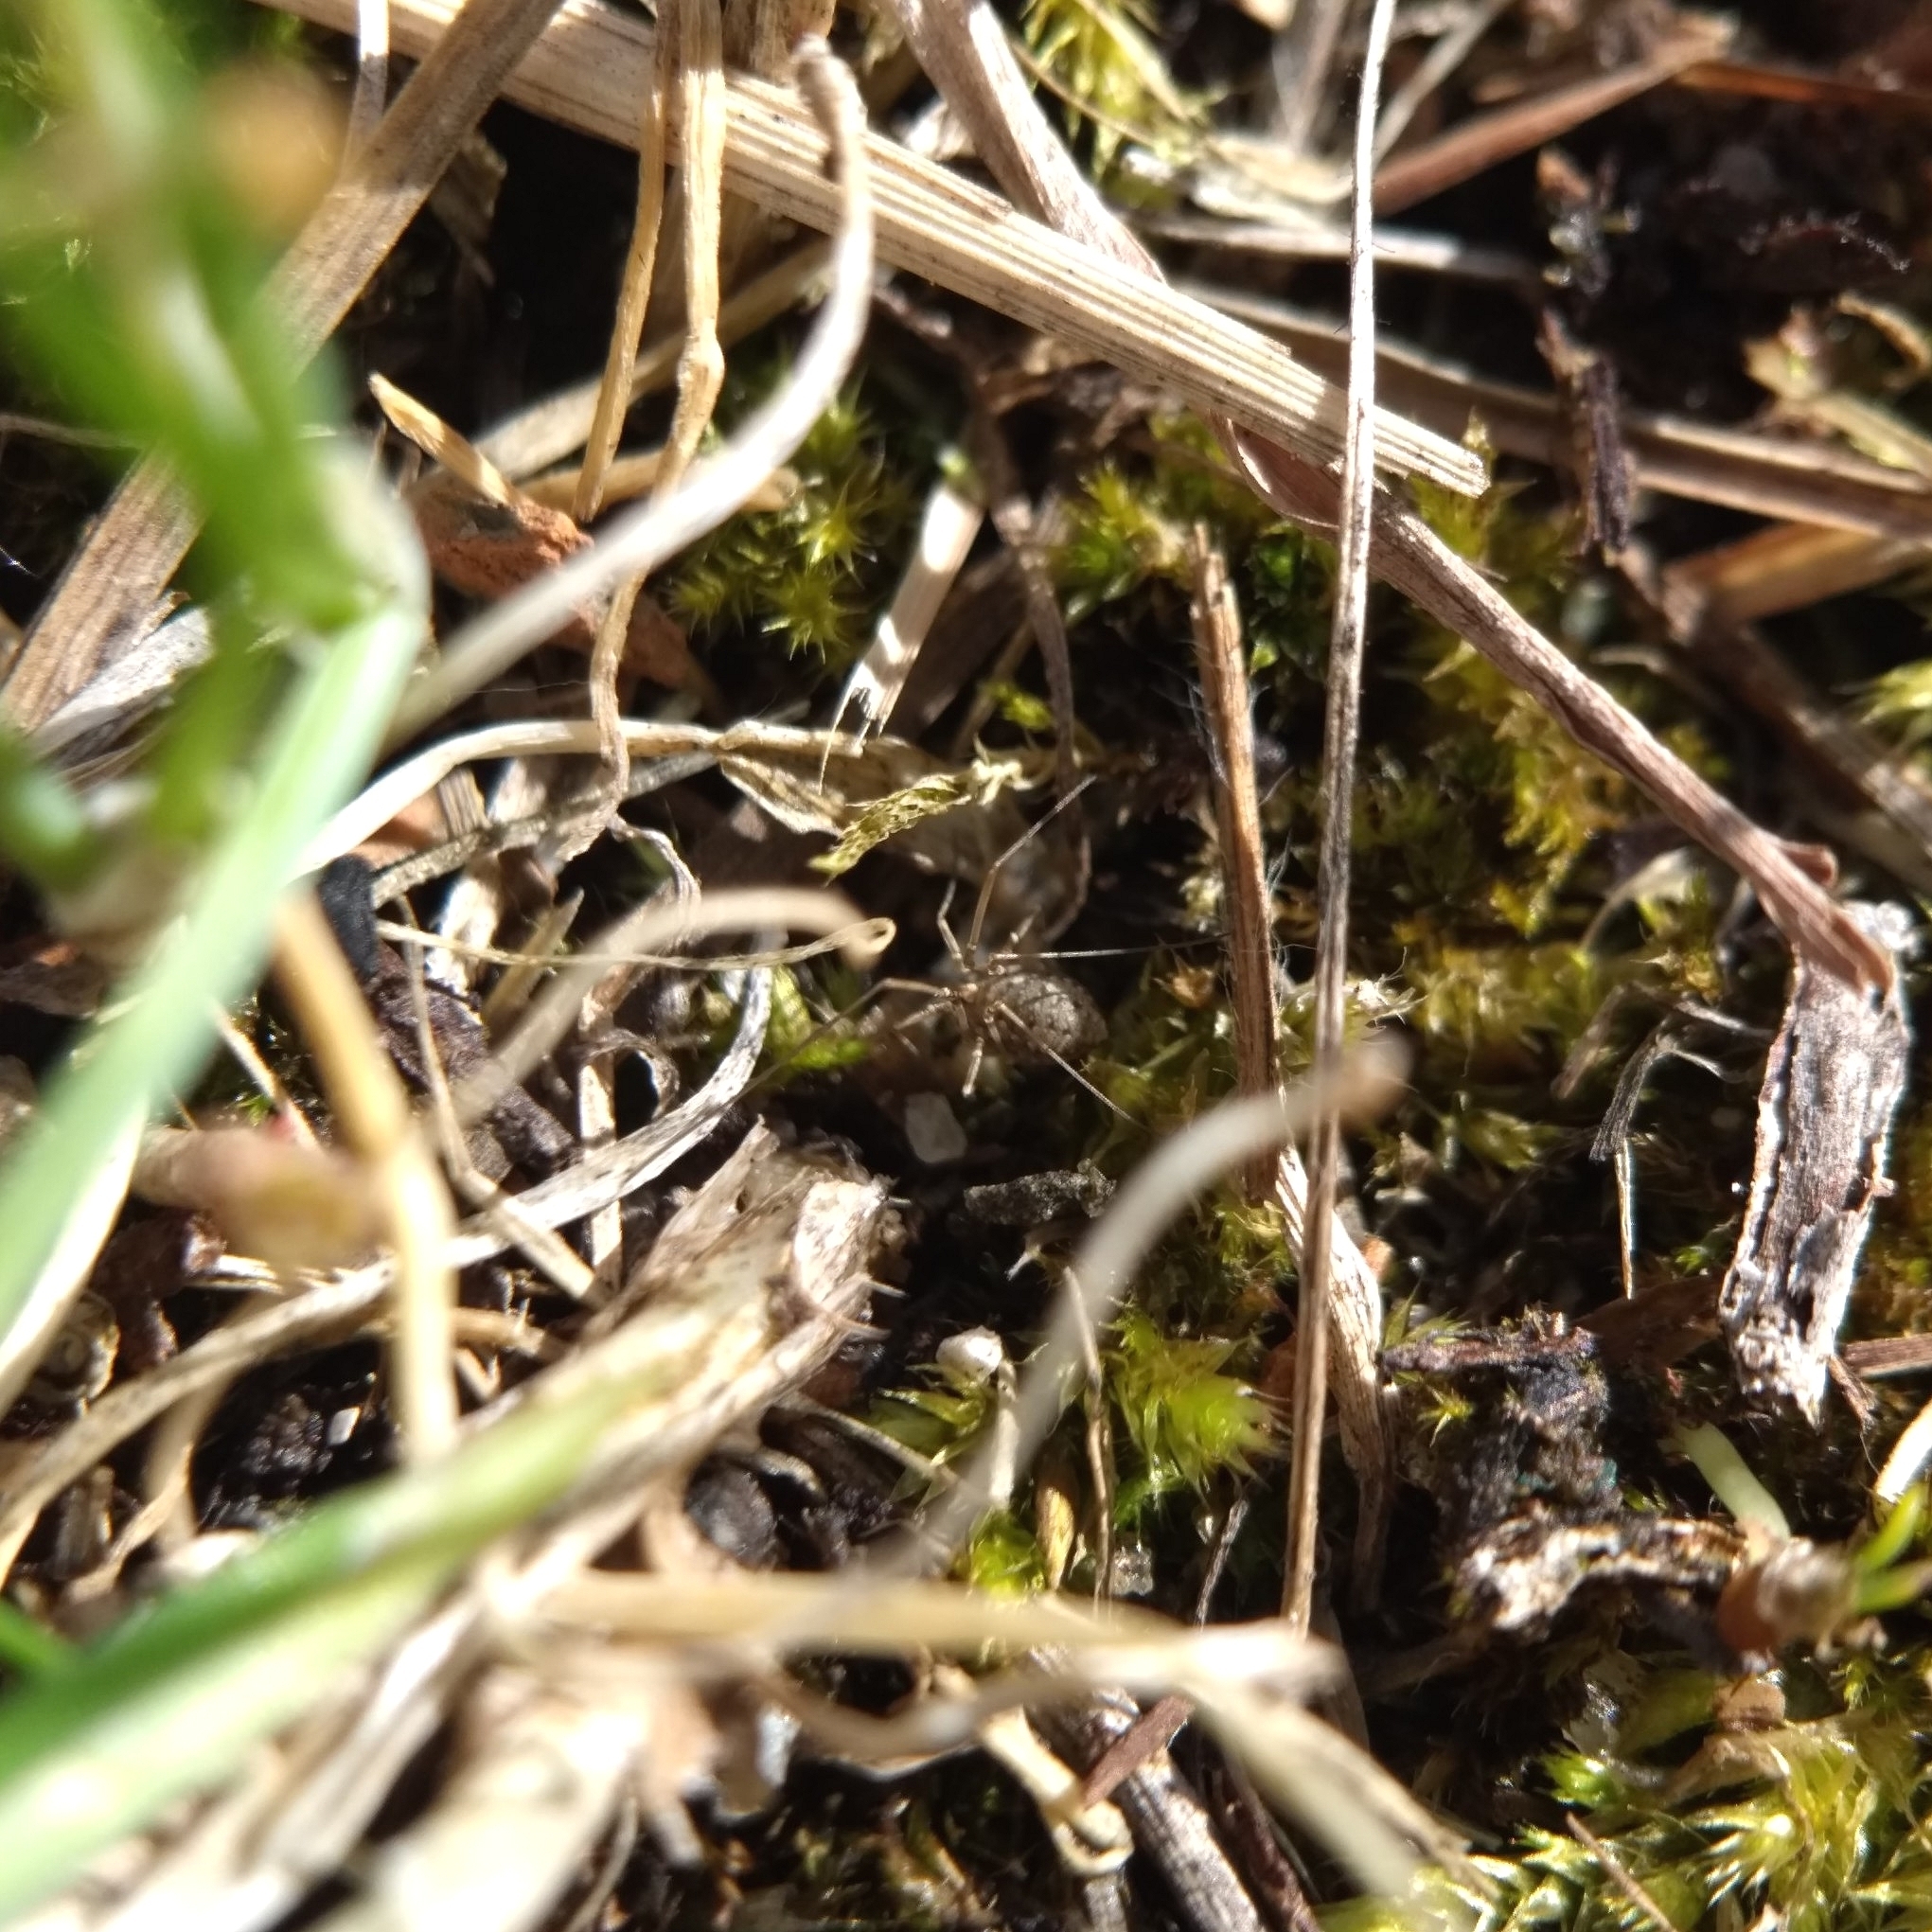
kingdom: Animalia
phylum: Arthropoda
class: Arachnida
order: Opiliones
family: Phalangiidae
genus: Phalangium
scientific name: Phalangium opilio
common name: Daddy longleg
